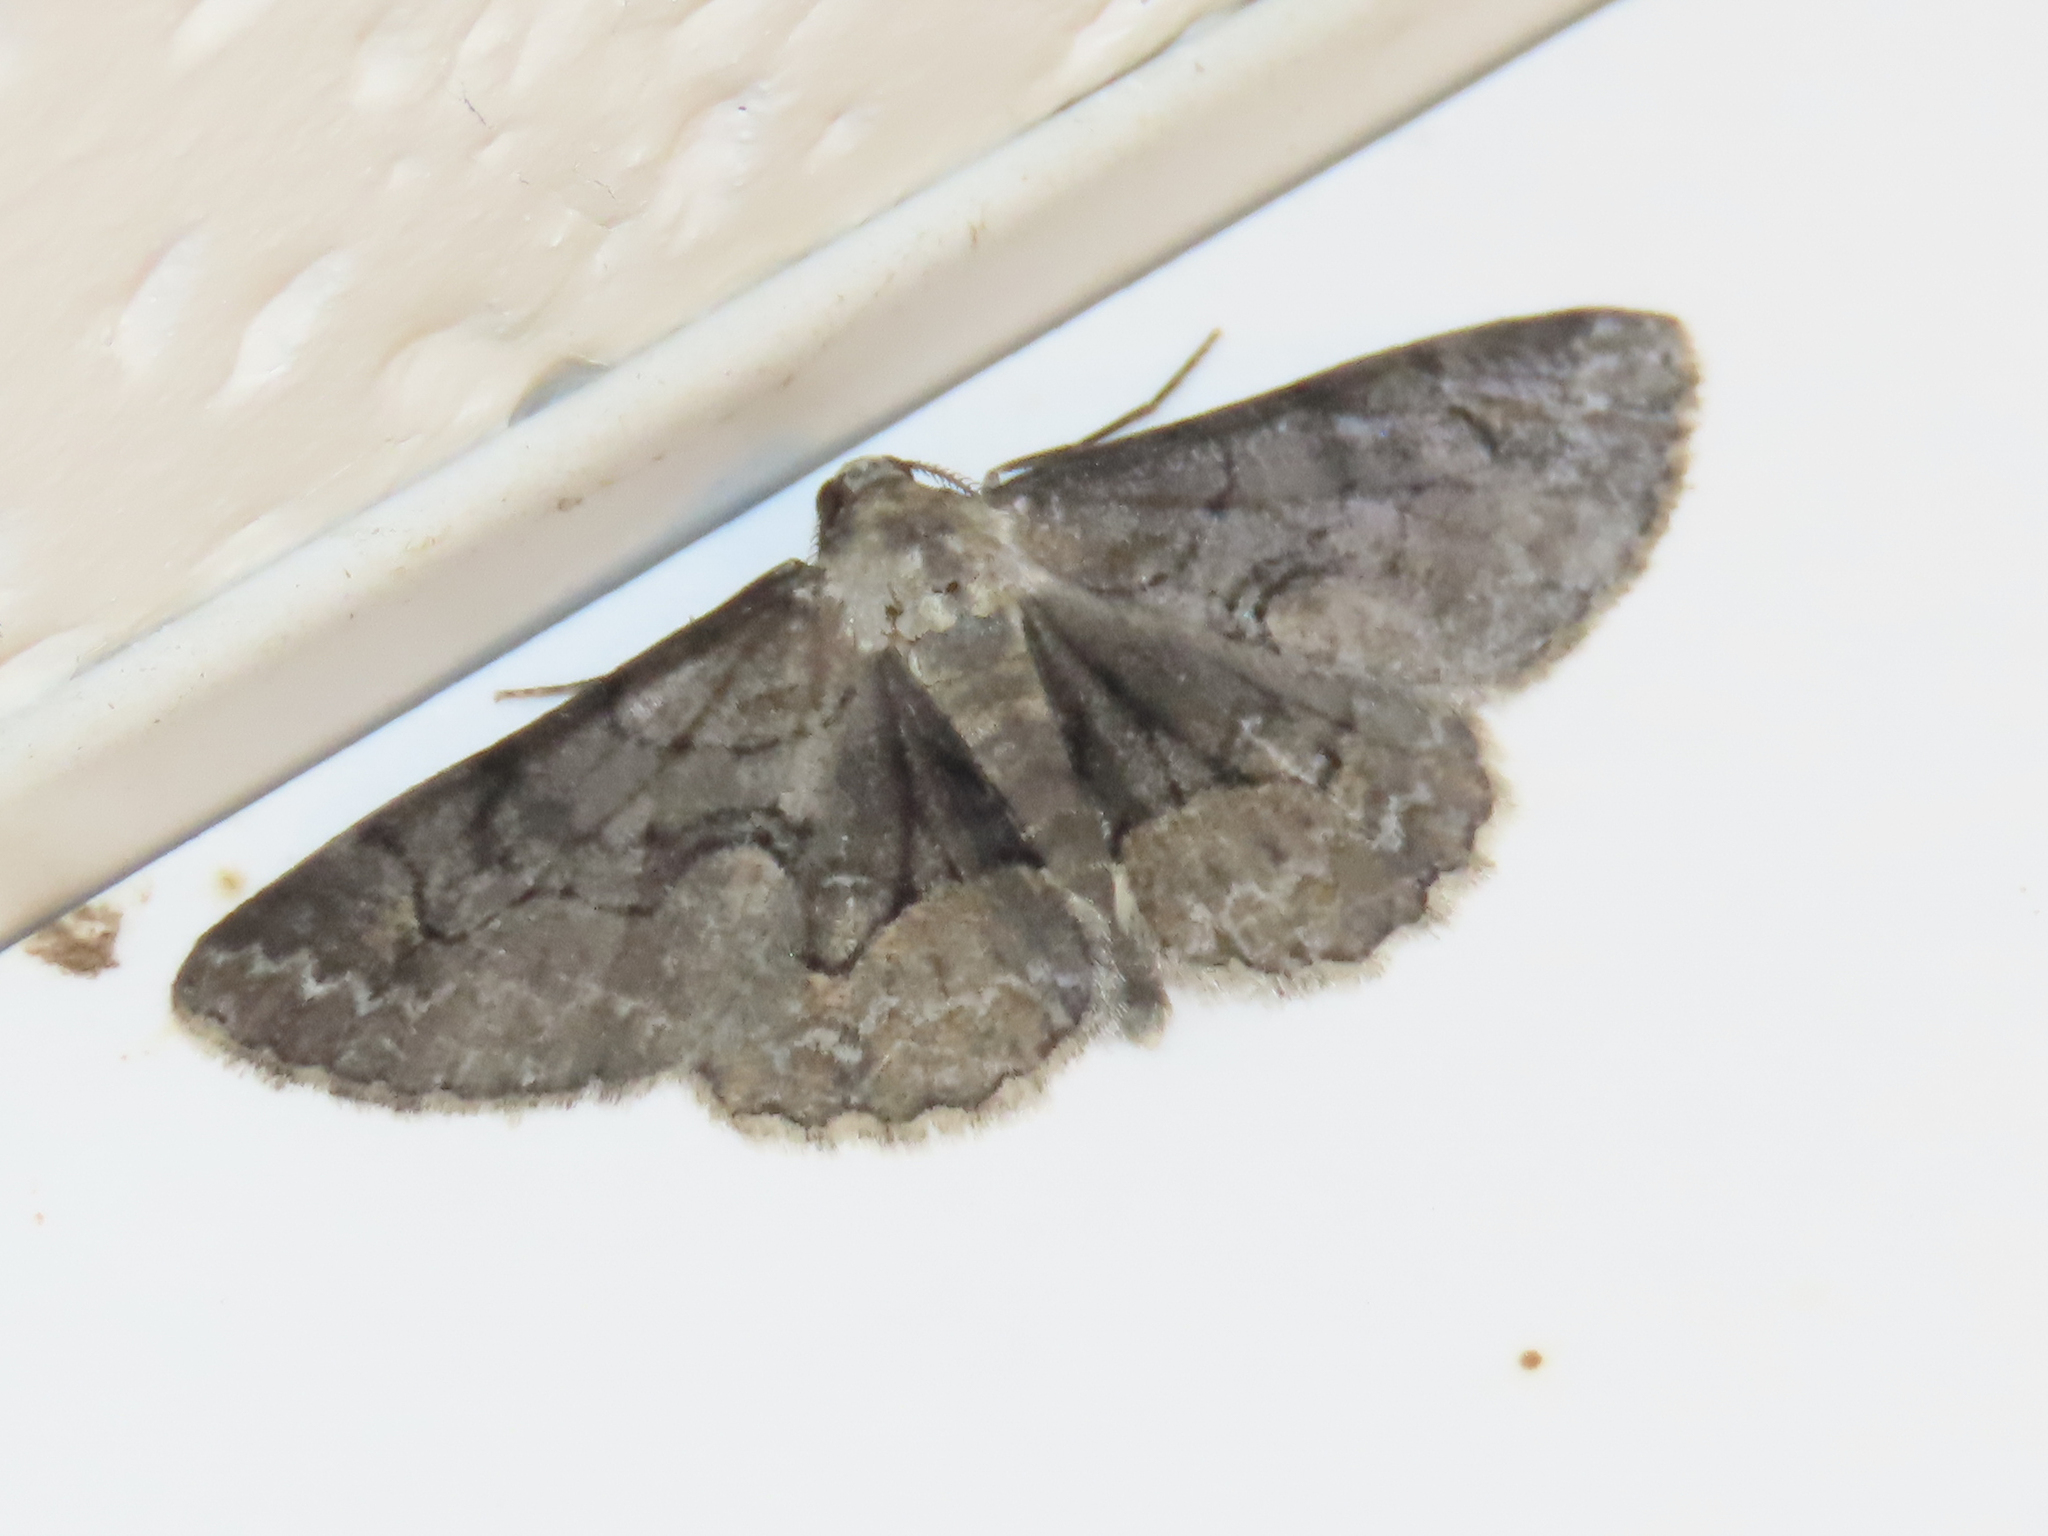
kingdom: Animalia
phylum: Arthropoda
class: Insecta
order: Lepidoptera
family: Geometridae
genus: Iridopsis
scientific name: Iridopsis larvaria
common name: Bent-line gray
